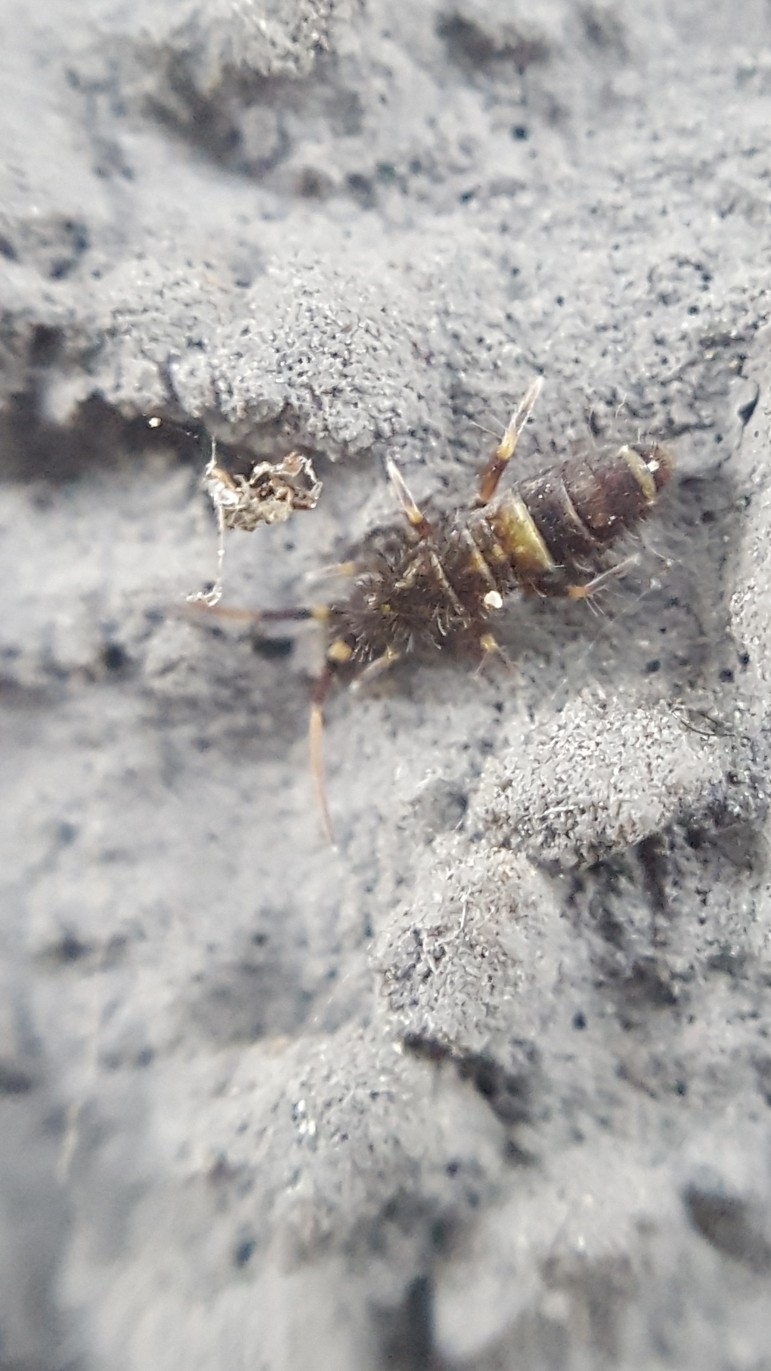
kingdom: Animalia
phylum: Arthropoda
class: Collembola
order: Entomobryomorpha
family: Orchesellidae
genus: Orchesella
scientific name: Orchesella cincta
